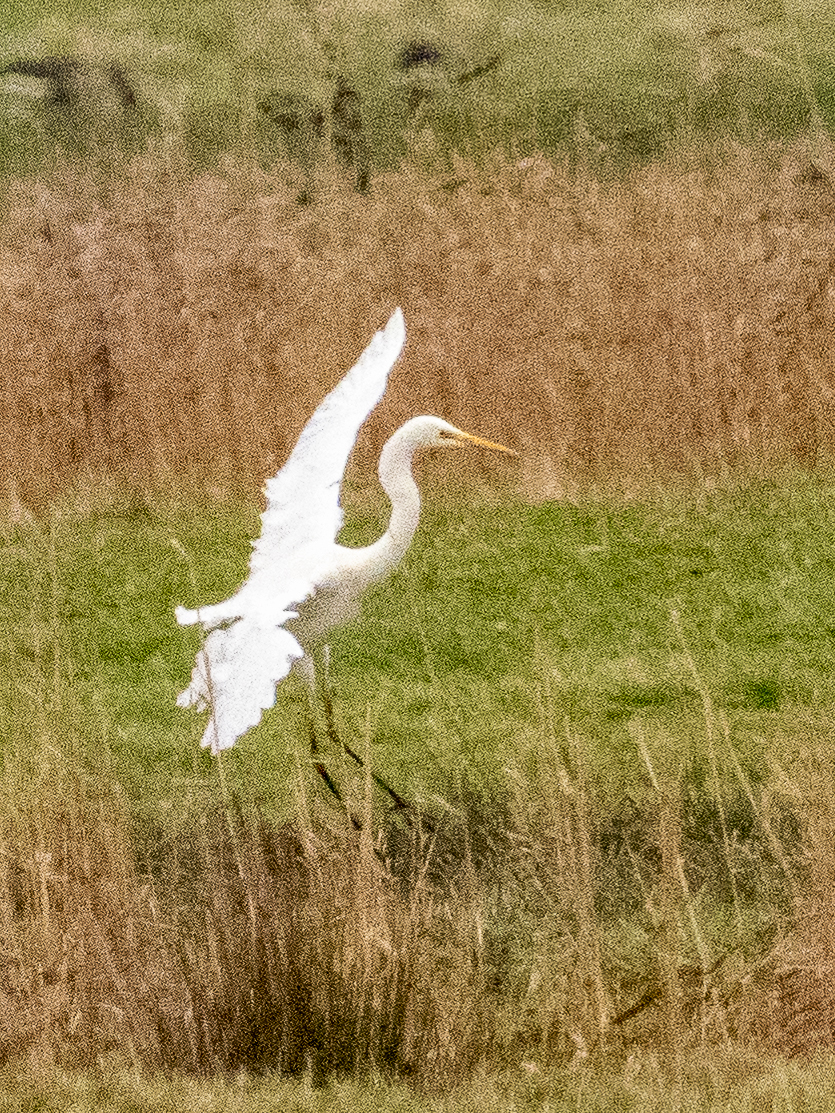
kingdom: Animalia
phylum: Chordata
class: Aves
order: Pelecaniformes
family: Ardeidae
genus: Ardea
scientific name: Ardea alba
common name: Great egret
